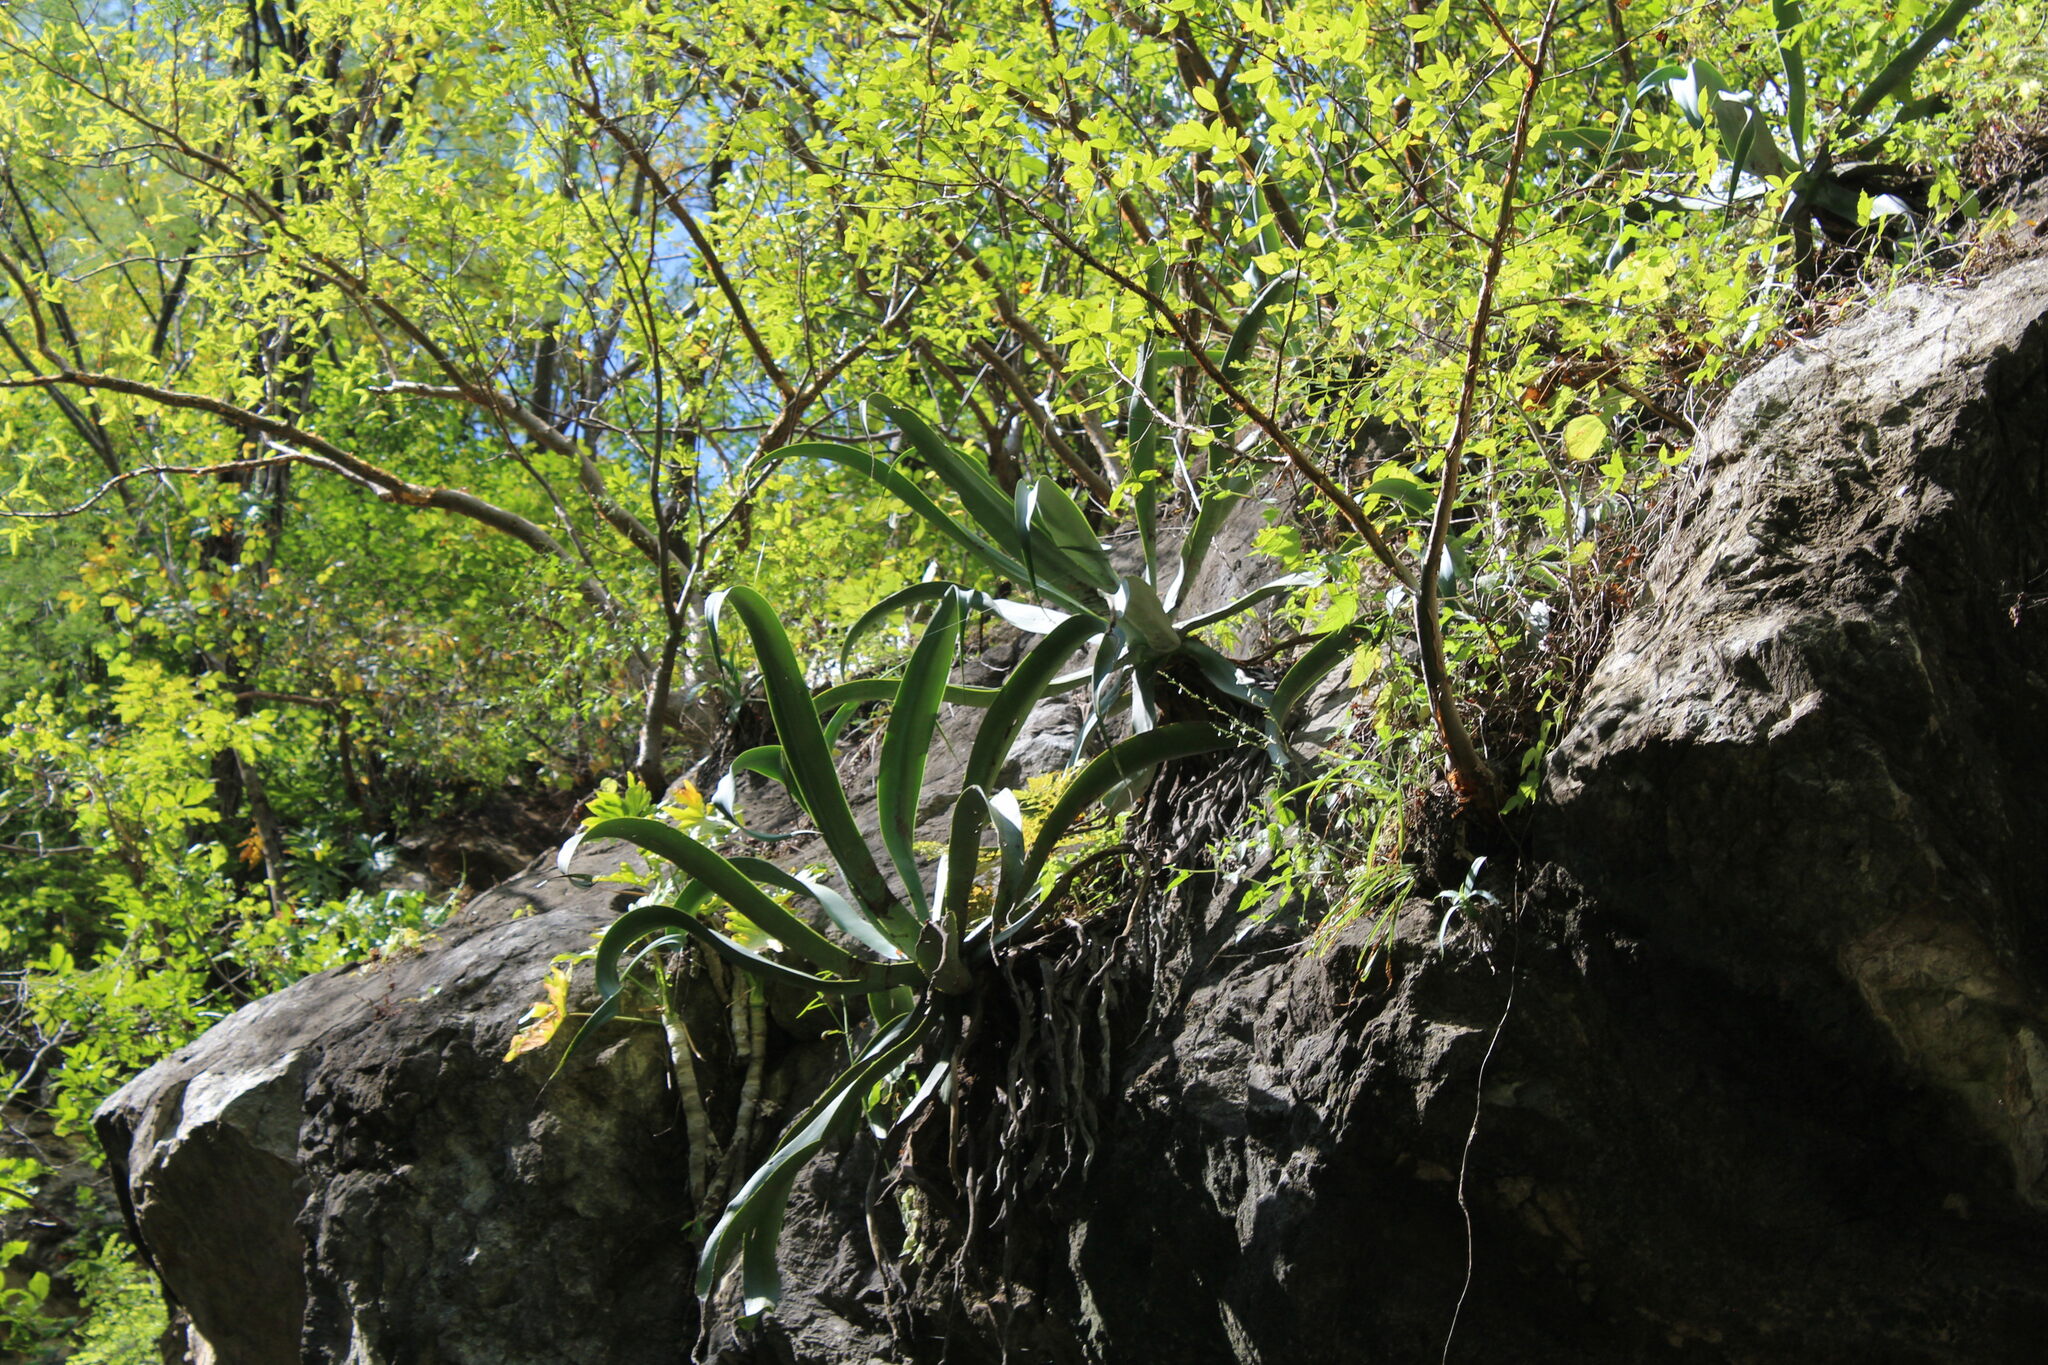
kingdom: Plantae
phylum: Tracheophyta
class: Liliopsida
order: Asparagales
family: Asparagaceae
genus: Agave
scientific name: Agave vilmoriniana
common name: Octopus plant
